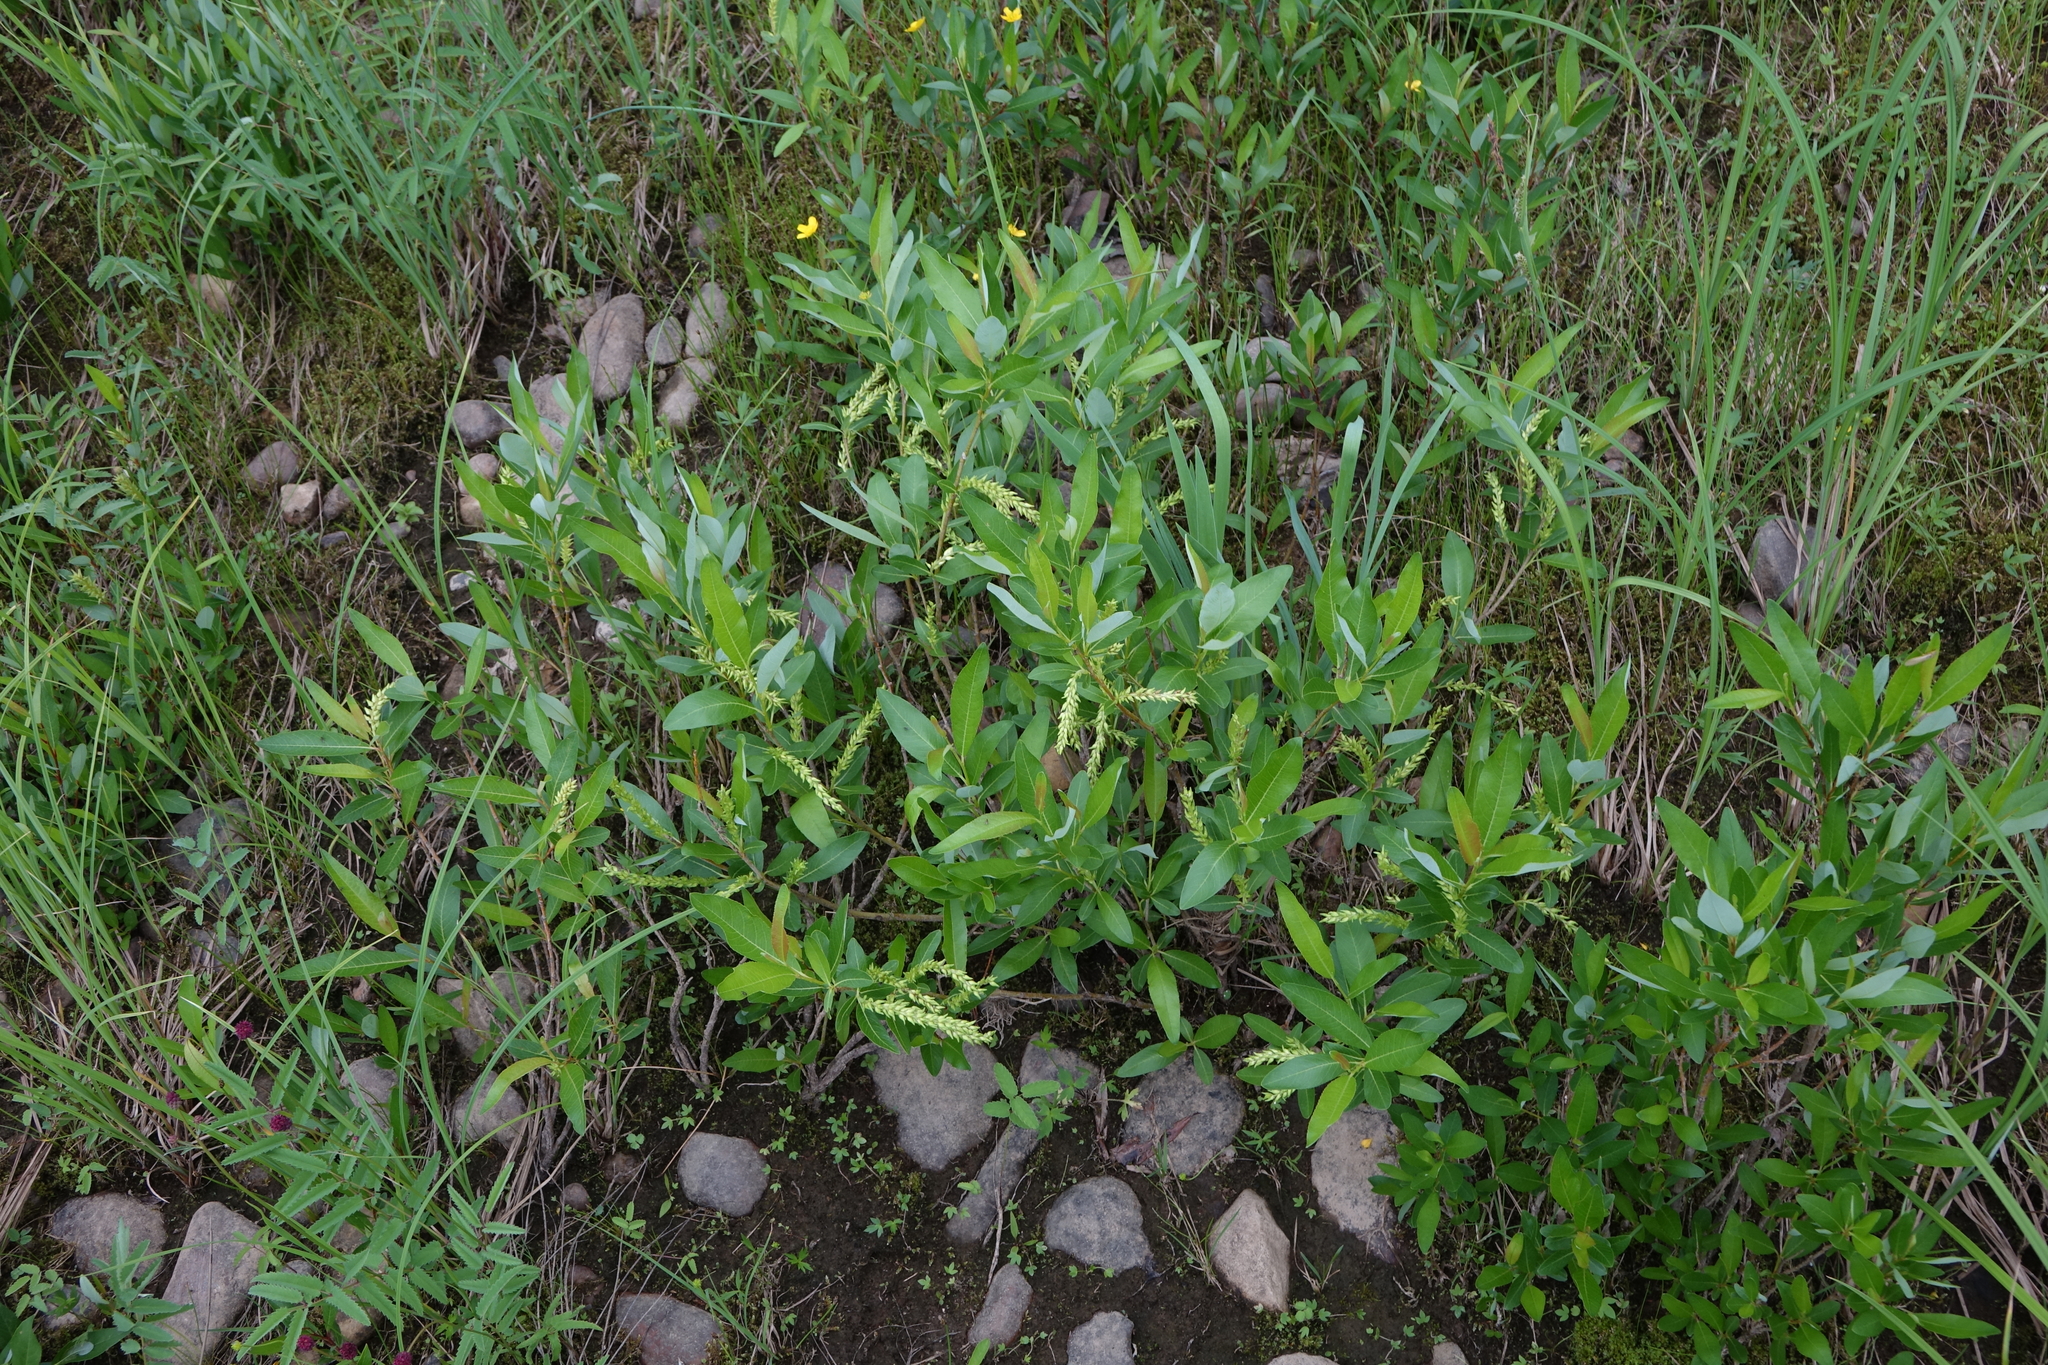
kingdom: Plantae
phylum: Tracheophyta
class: Magnoliopsida
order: Malpighiales
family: Salicaceae
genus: Salix
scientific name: Salix pseudopentandra
